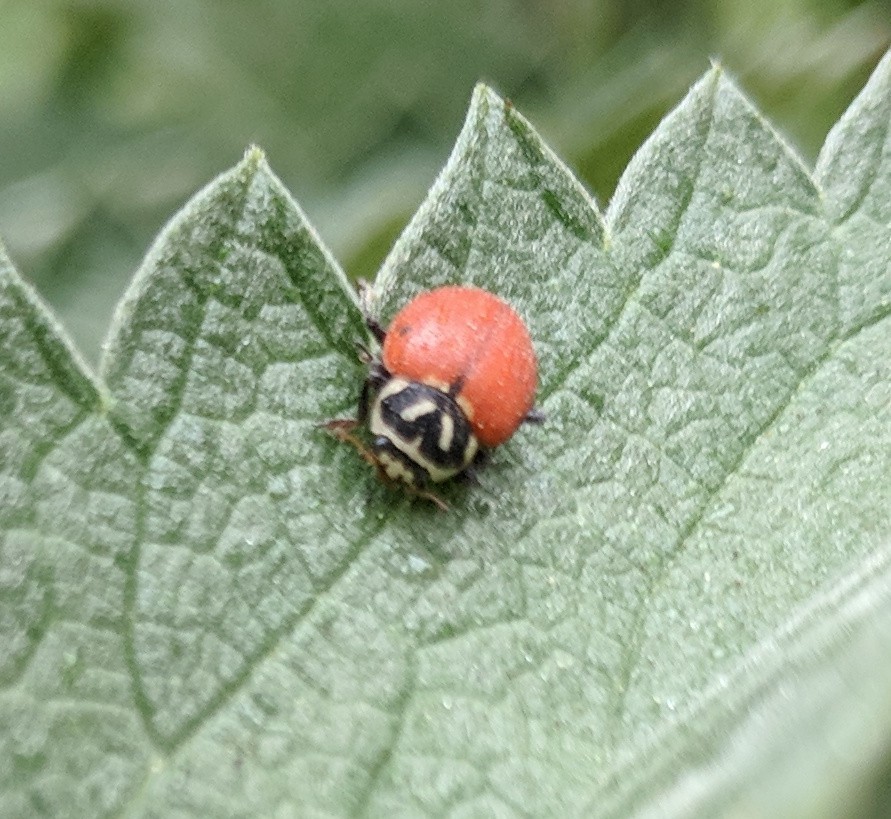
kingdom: Animalia
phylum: Arthropoda
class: Insecta
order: Coleoptera
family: Coccinellidae
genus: Hippodamia
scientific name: Hippodamia convergens
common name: Convergent lady beetle
